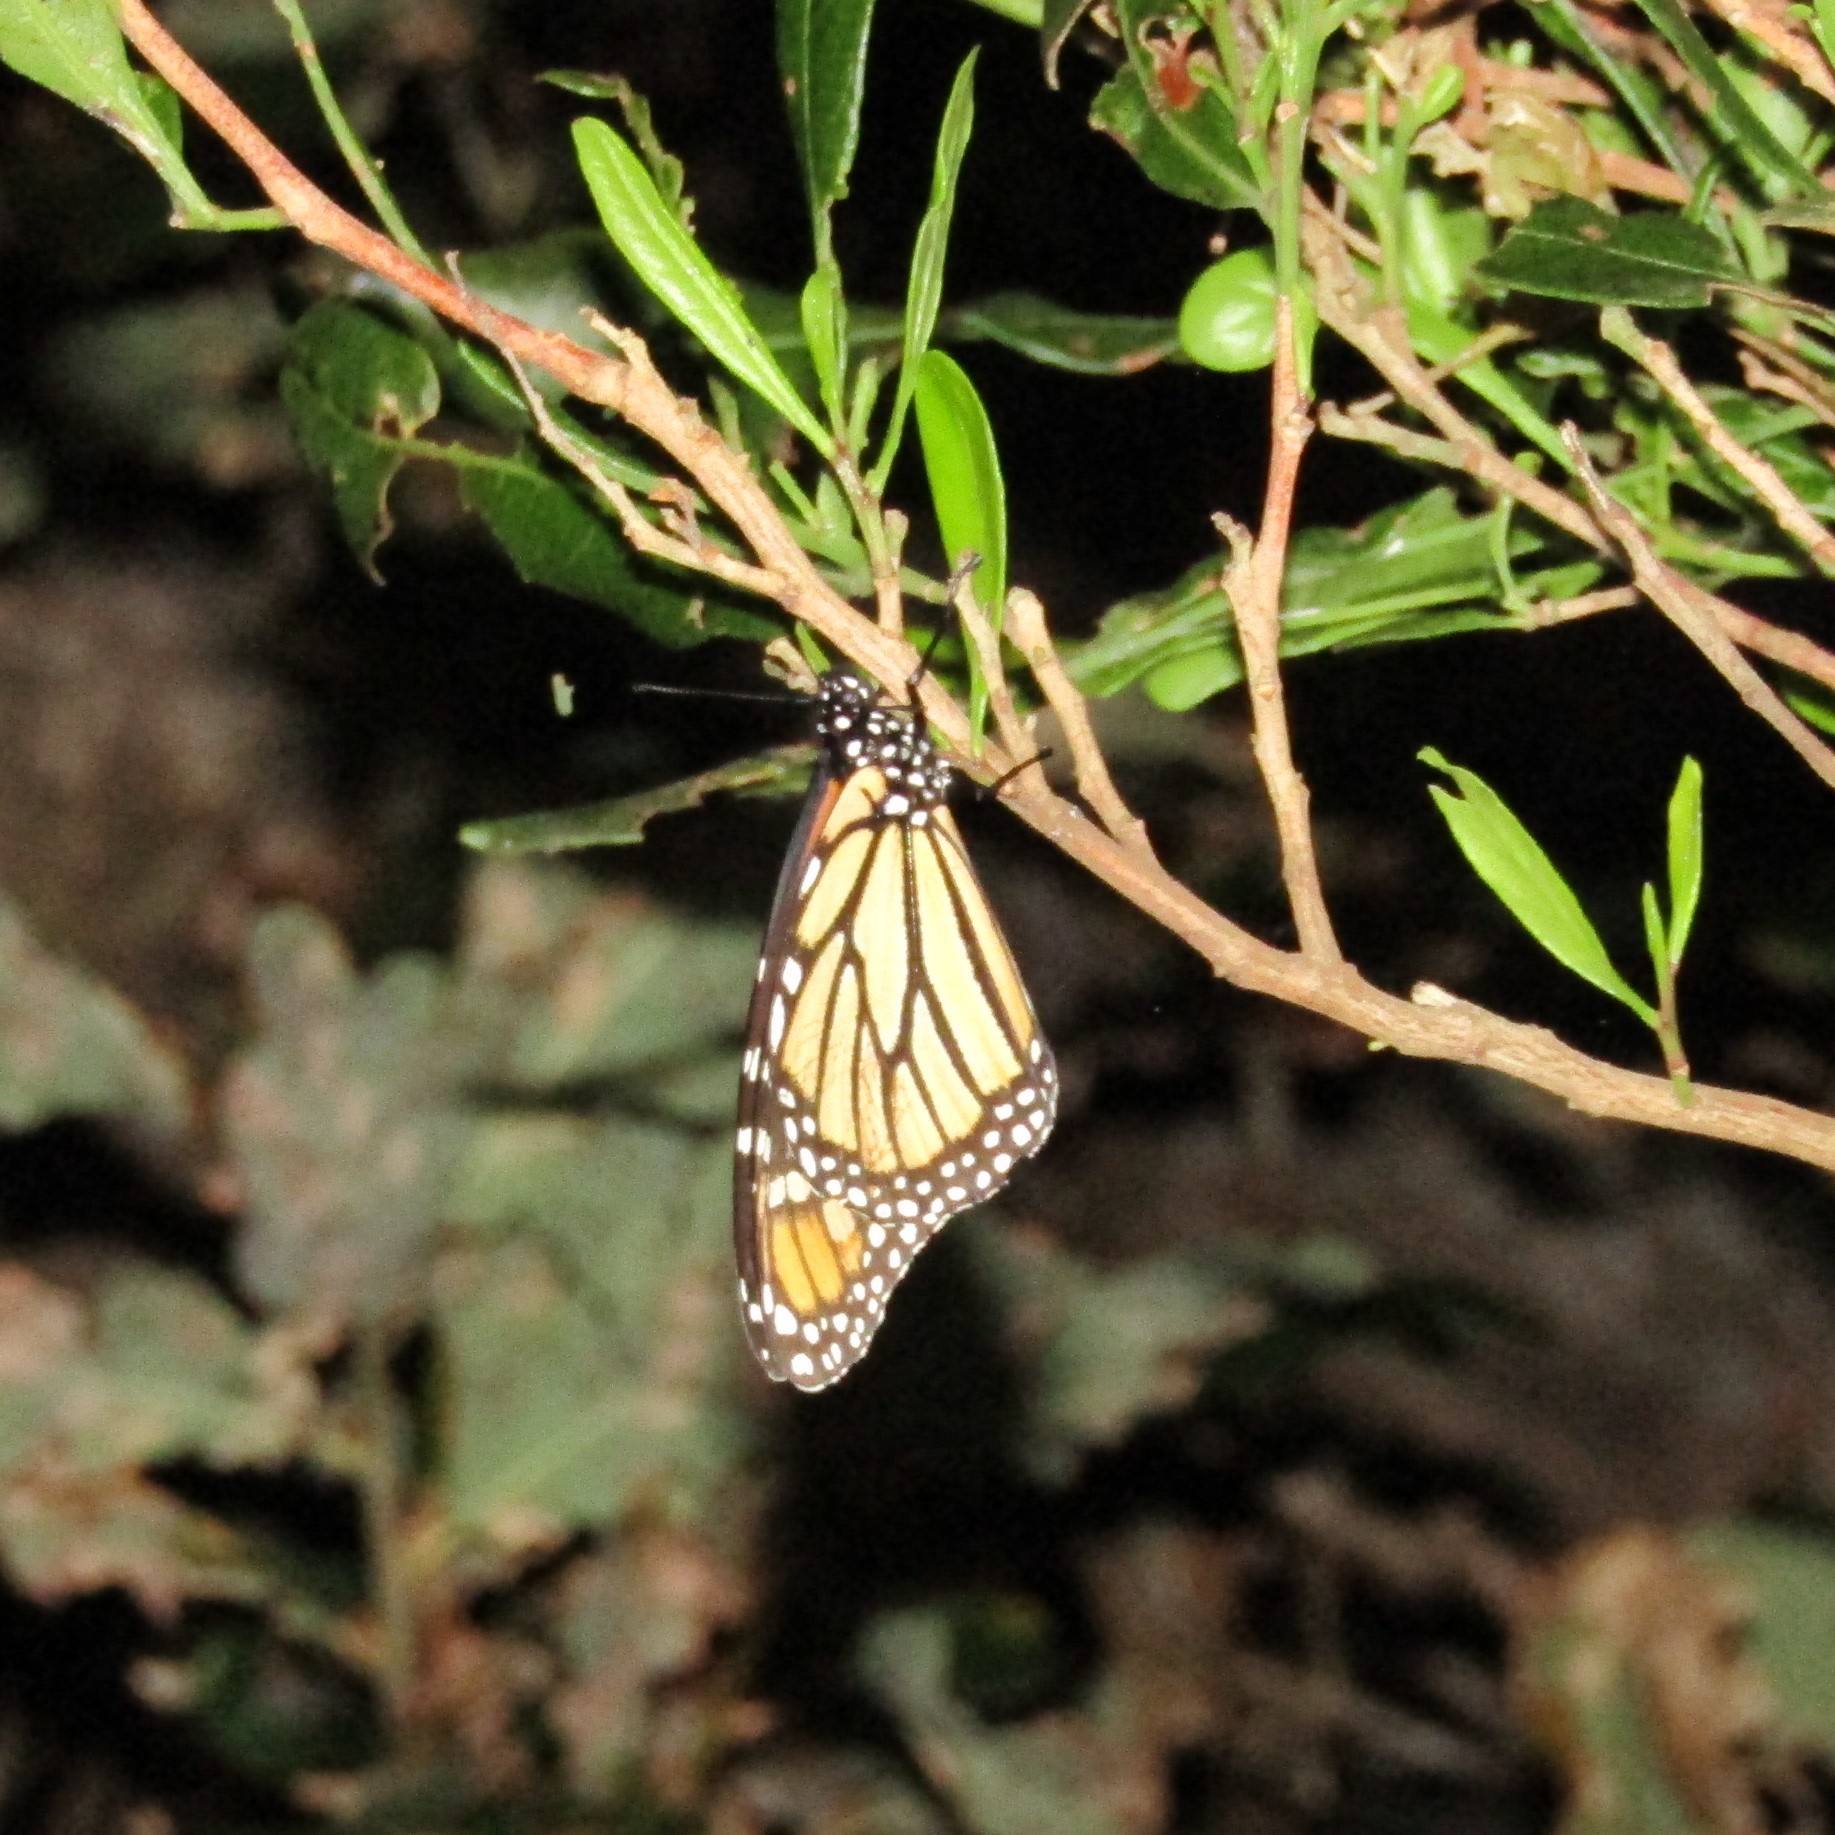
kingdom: Animalia
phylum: Arthropoda
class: Insecta
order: Lepidoptera
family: Nymphalidae
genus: Danaus
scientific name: Danaus plexippus
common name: Monarch
